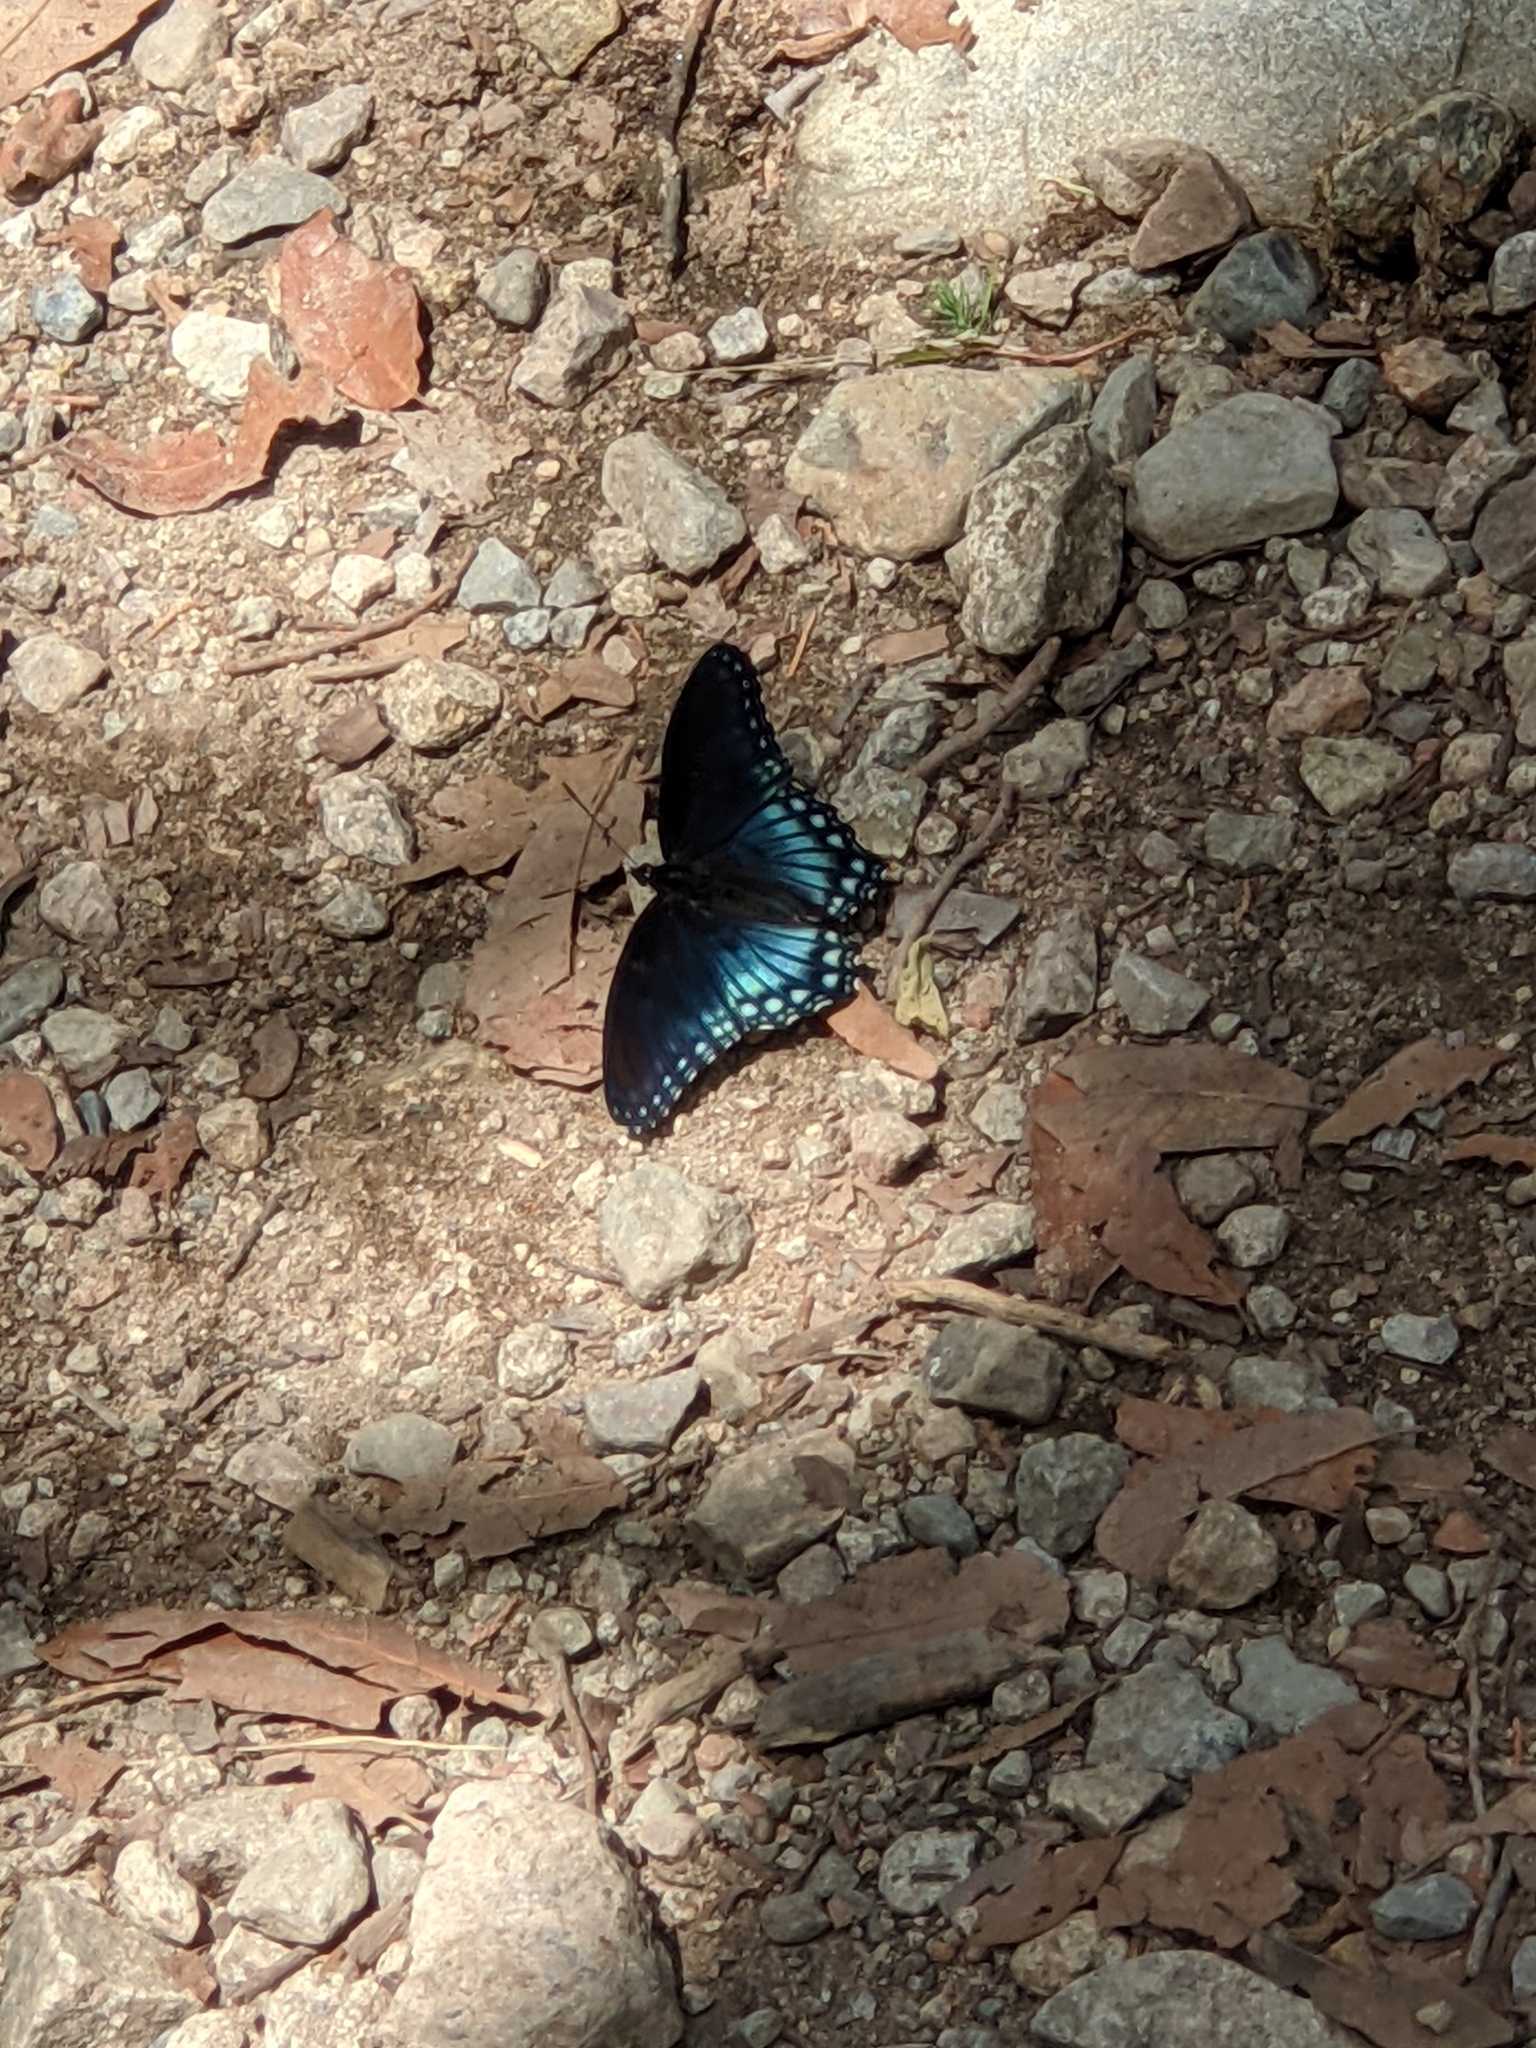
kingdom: Animalia
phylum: Arthropoda
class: Insecta
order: Lepidoptera
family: Nymphalidae
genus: Limenitis
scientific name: Limenitis arthemis
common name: Red-spotted admiral
